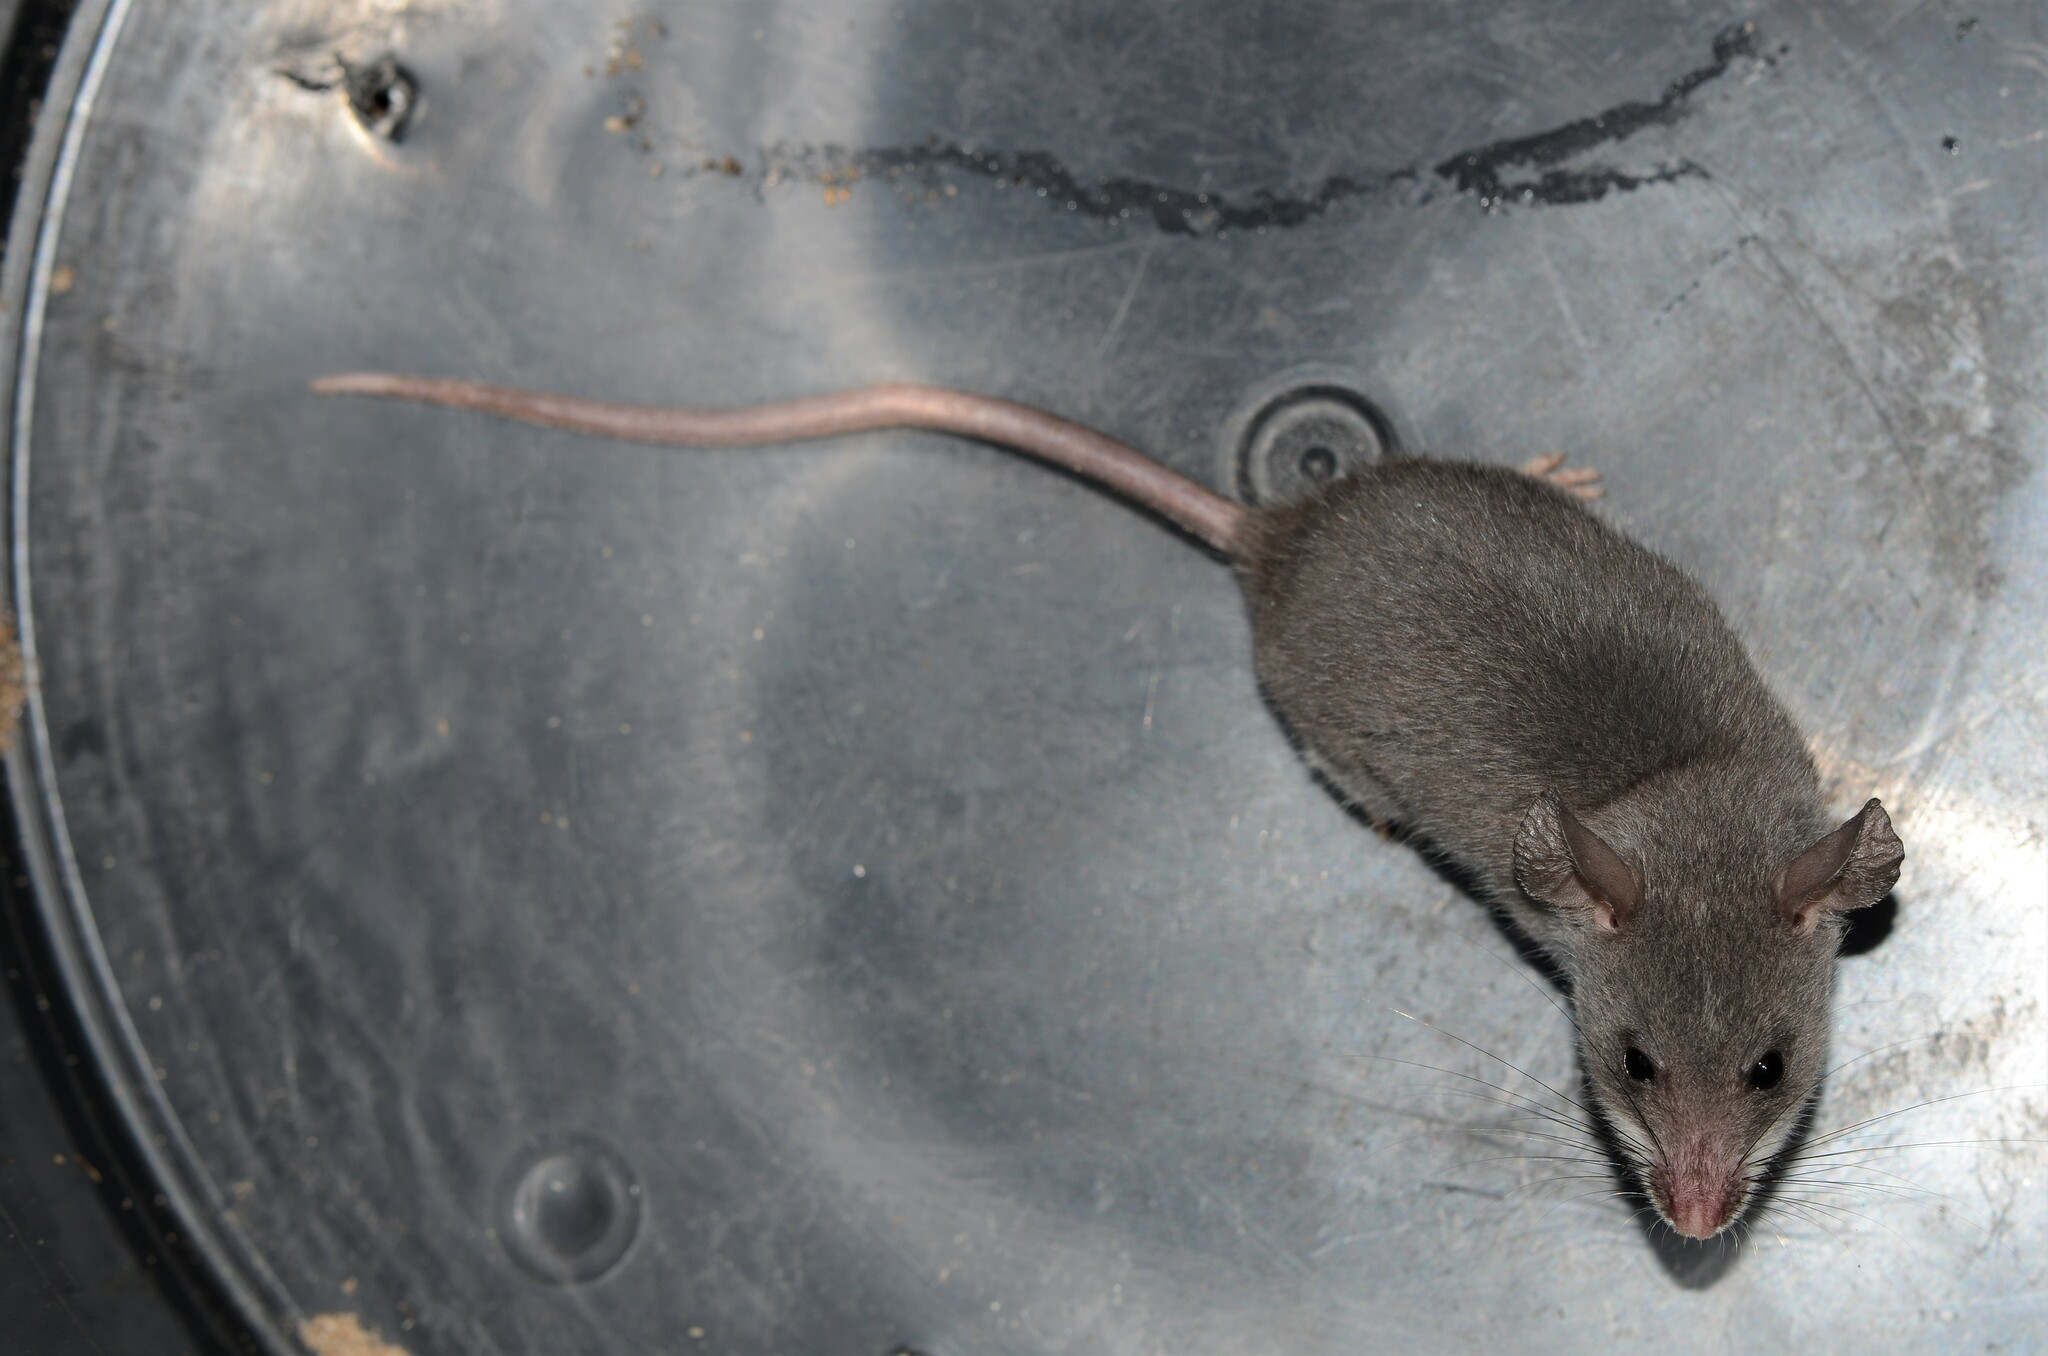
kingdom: Animalia
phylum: Chordata
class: Mammalia
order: Rodentia
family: Nesomyidae
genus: Beamys
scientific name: Beamys hindei
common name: Lesser hamster-rat, long-tailed pouched rat
